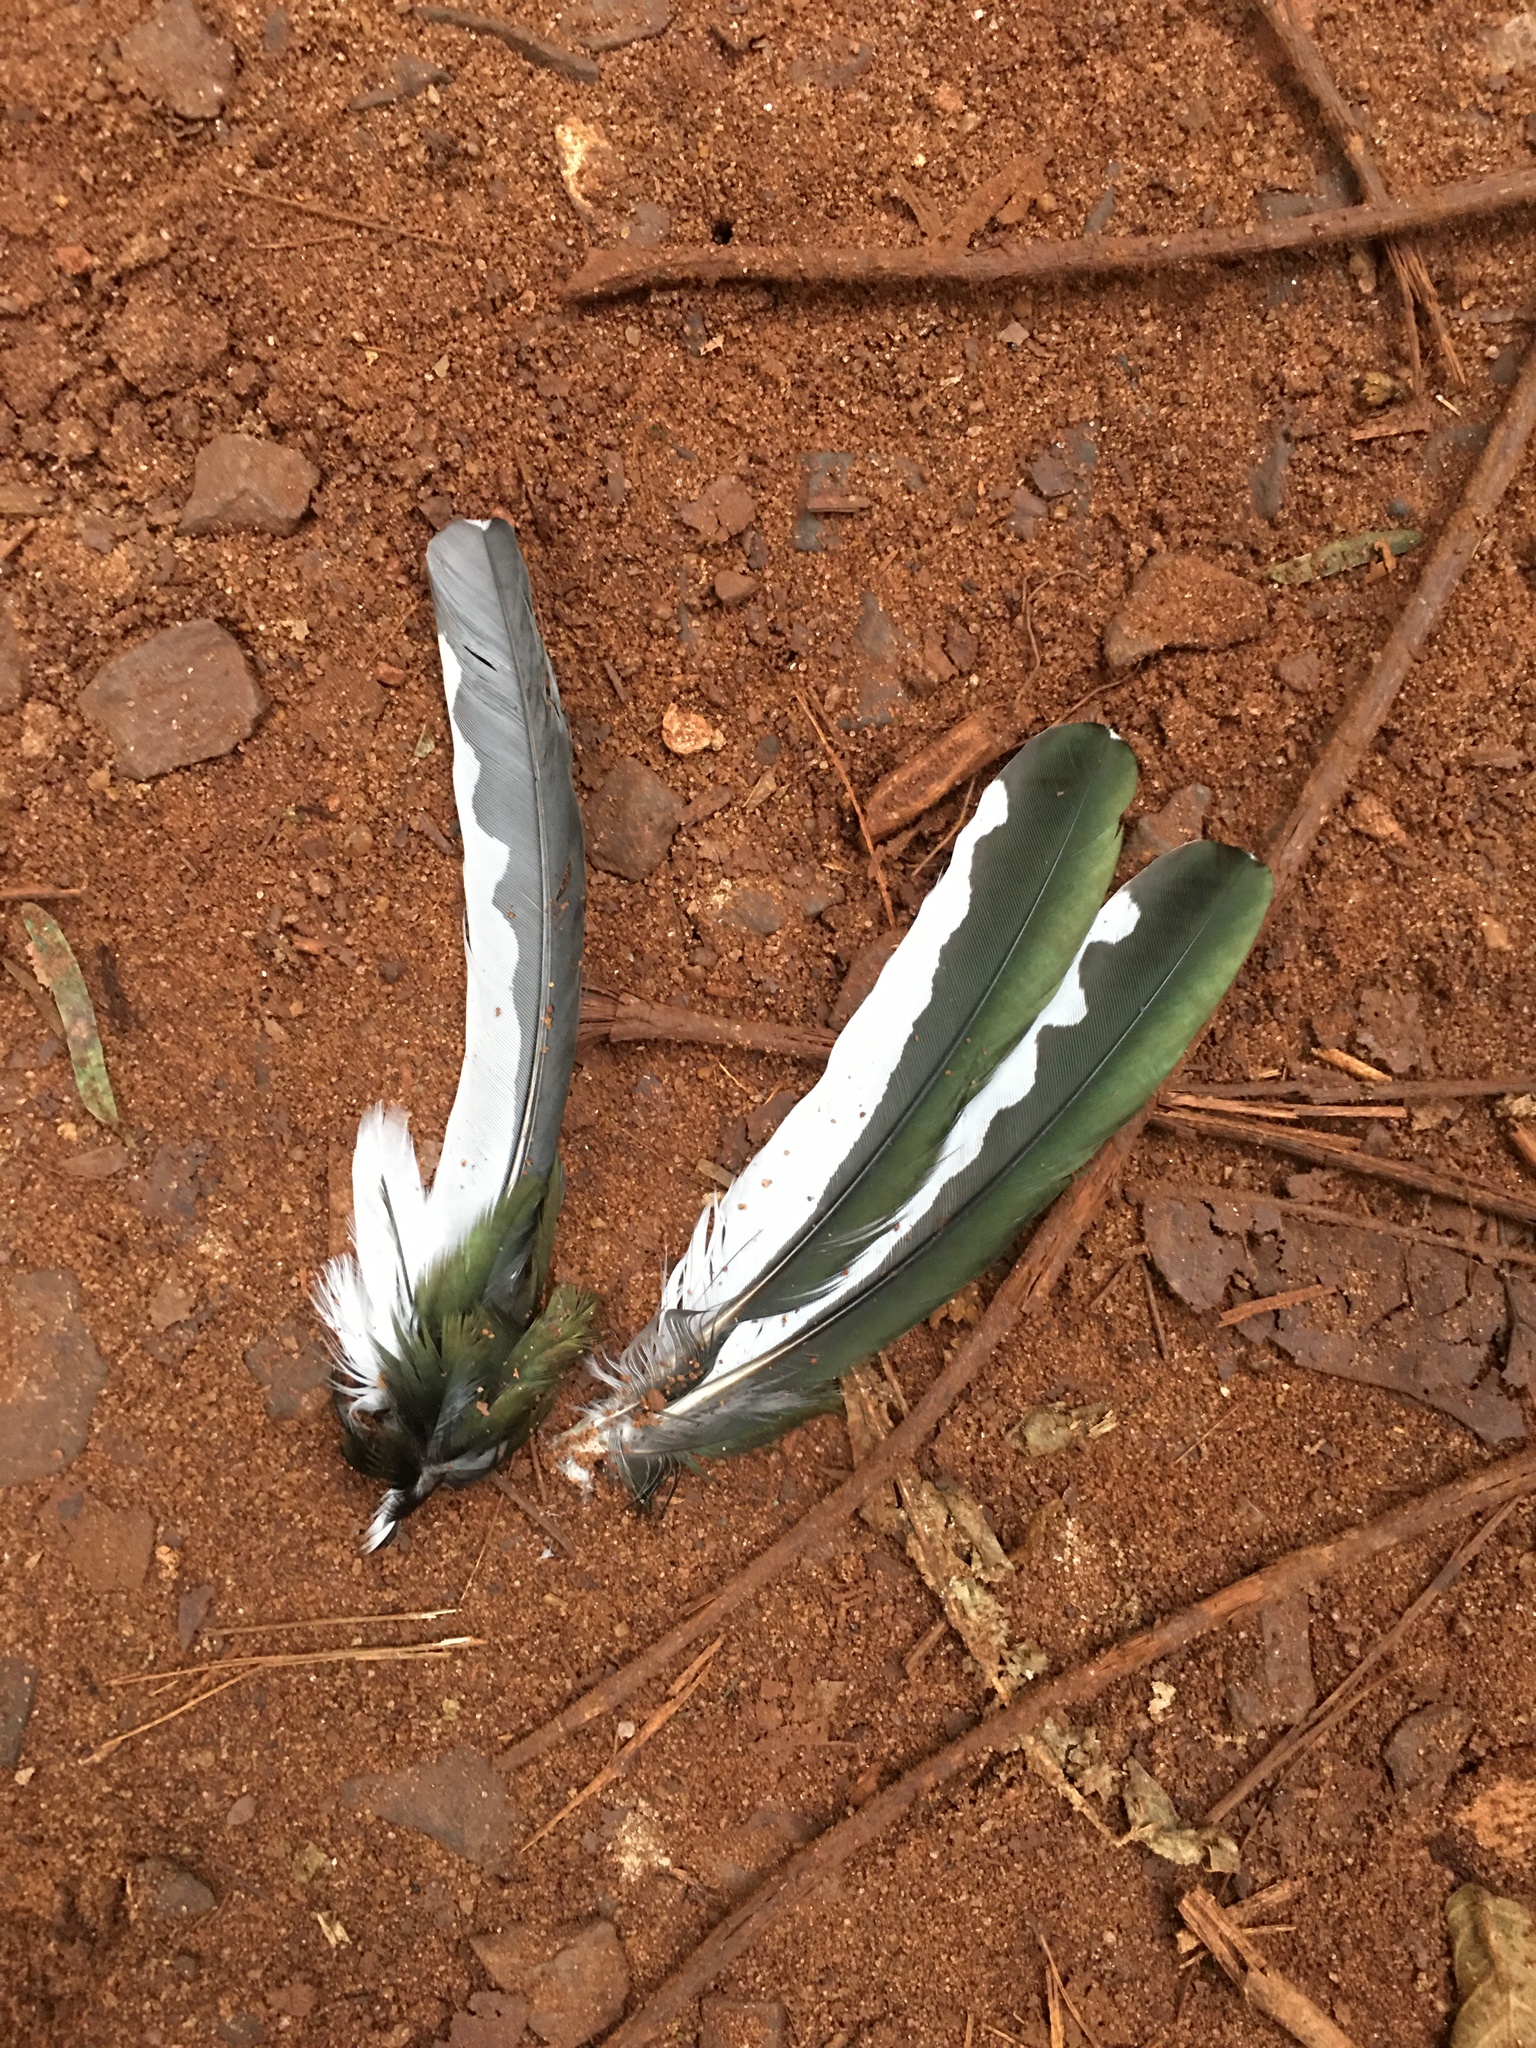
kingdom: Animalia
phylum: Chordata
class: Aves
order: Coraciiformes
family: Alcedinidae
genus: Chloroceryle
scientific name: Chloroceryle amazona
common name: Amazon kingfisher
